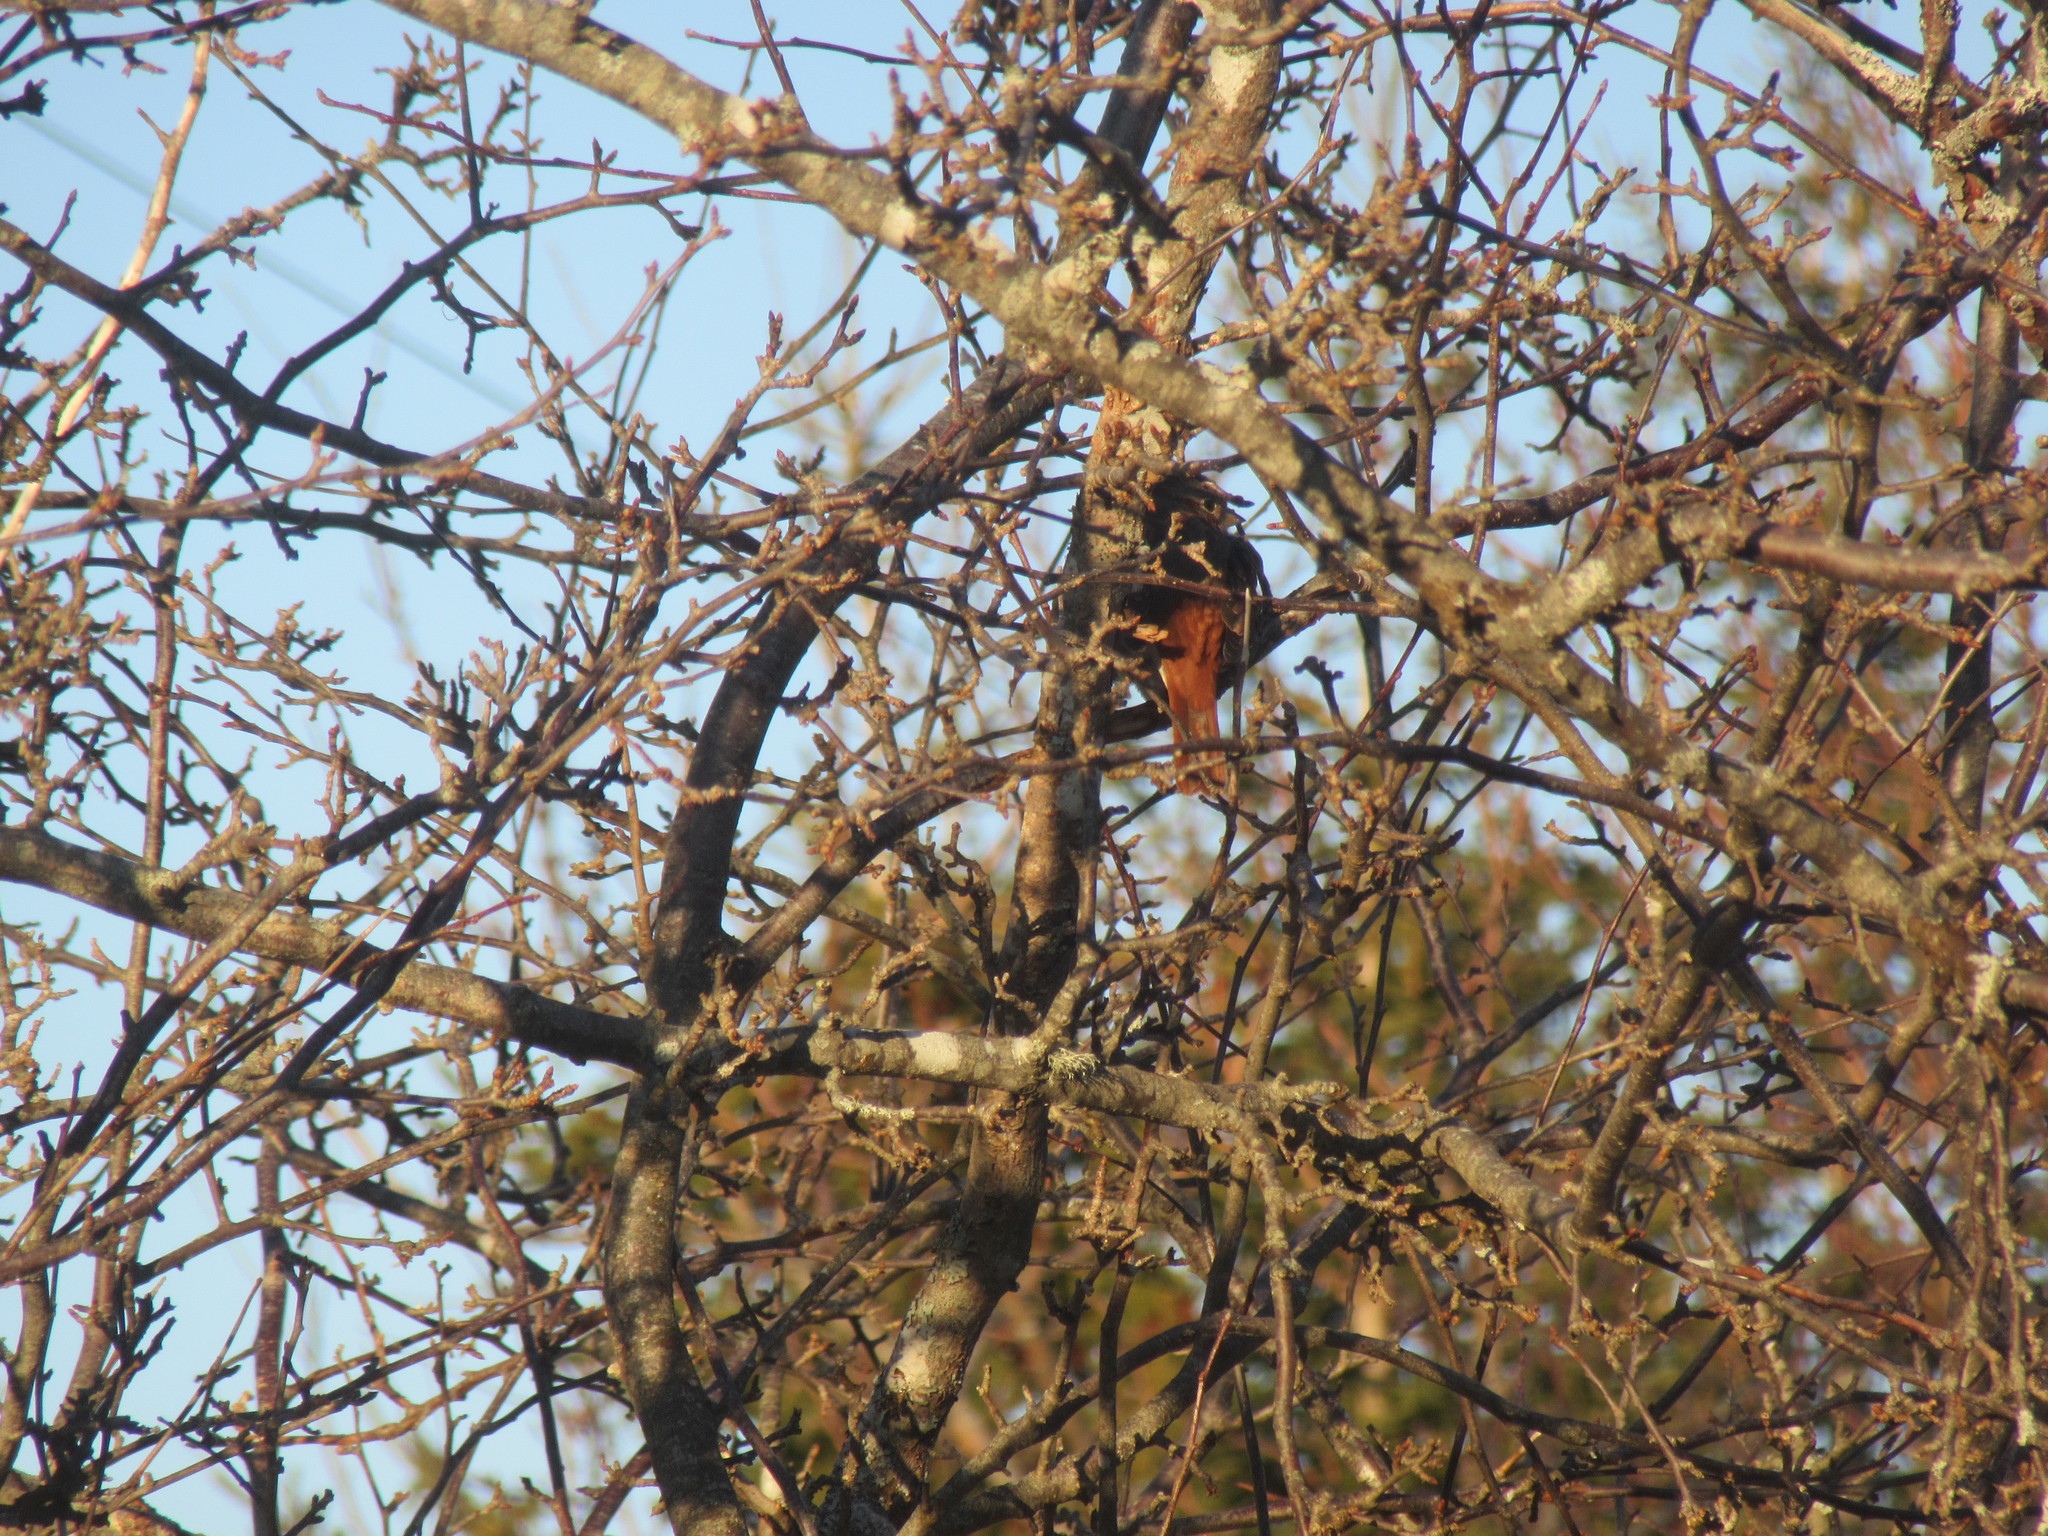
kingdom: Animalia
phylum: Chordata
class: Aves
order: Passeriformes
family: Passerellidae
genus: Passerella
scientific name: Passerella iliaca
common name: Fox sparrow
